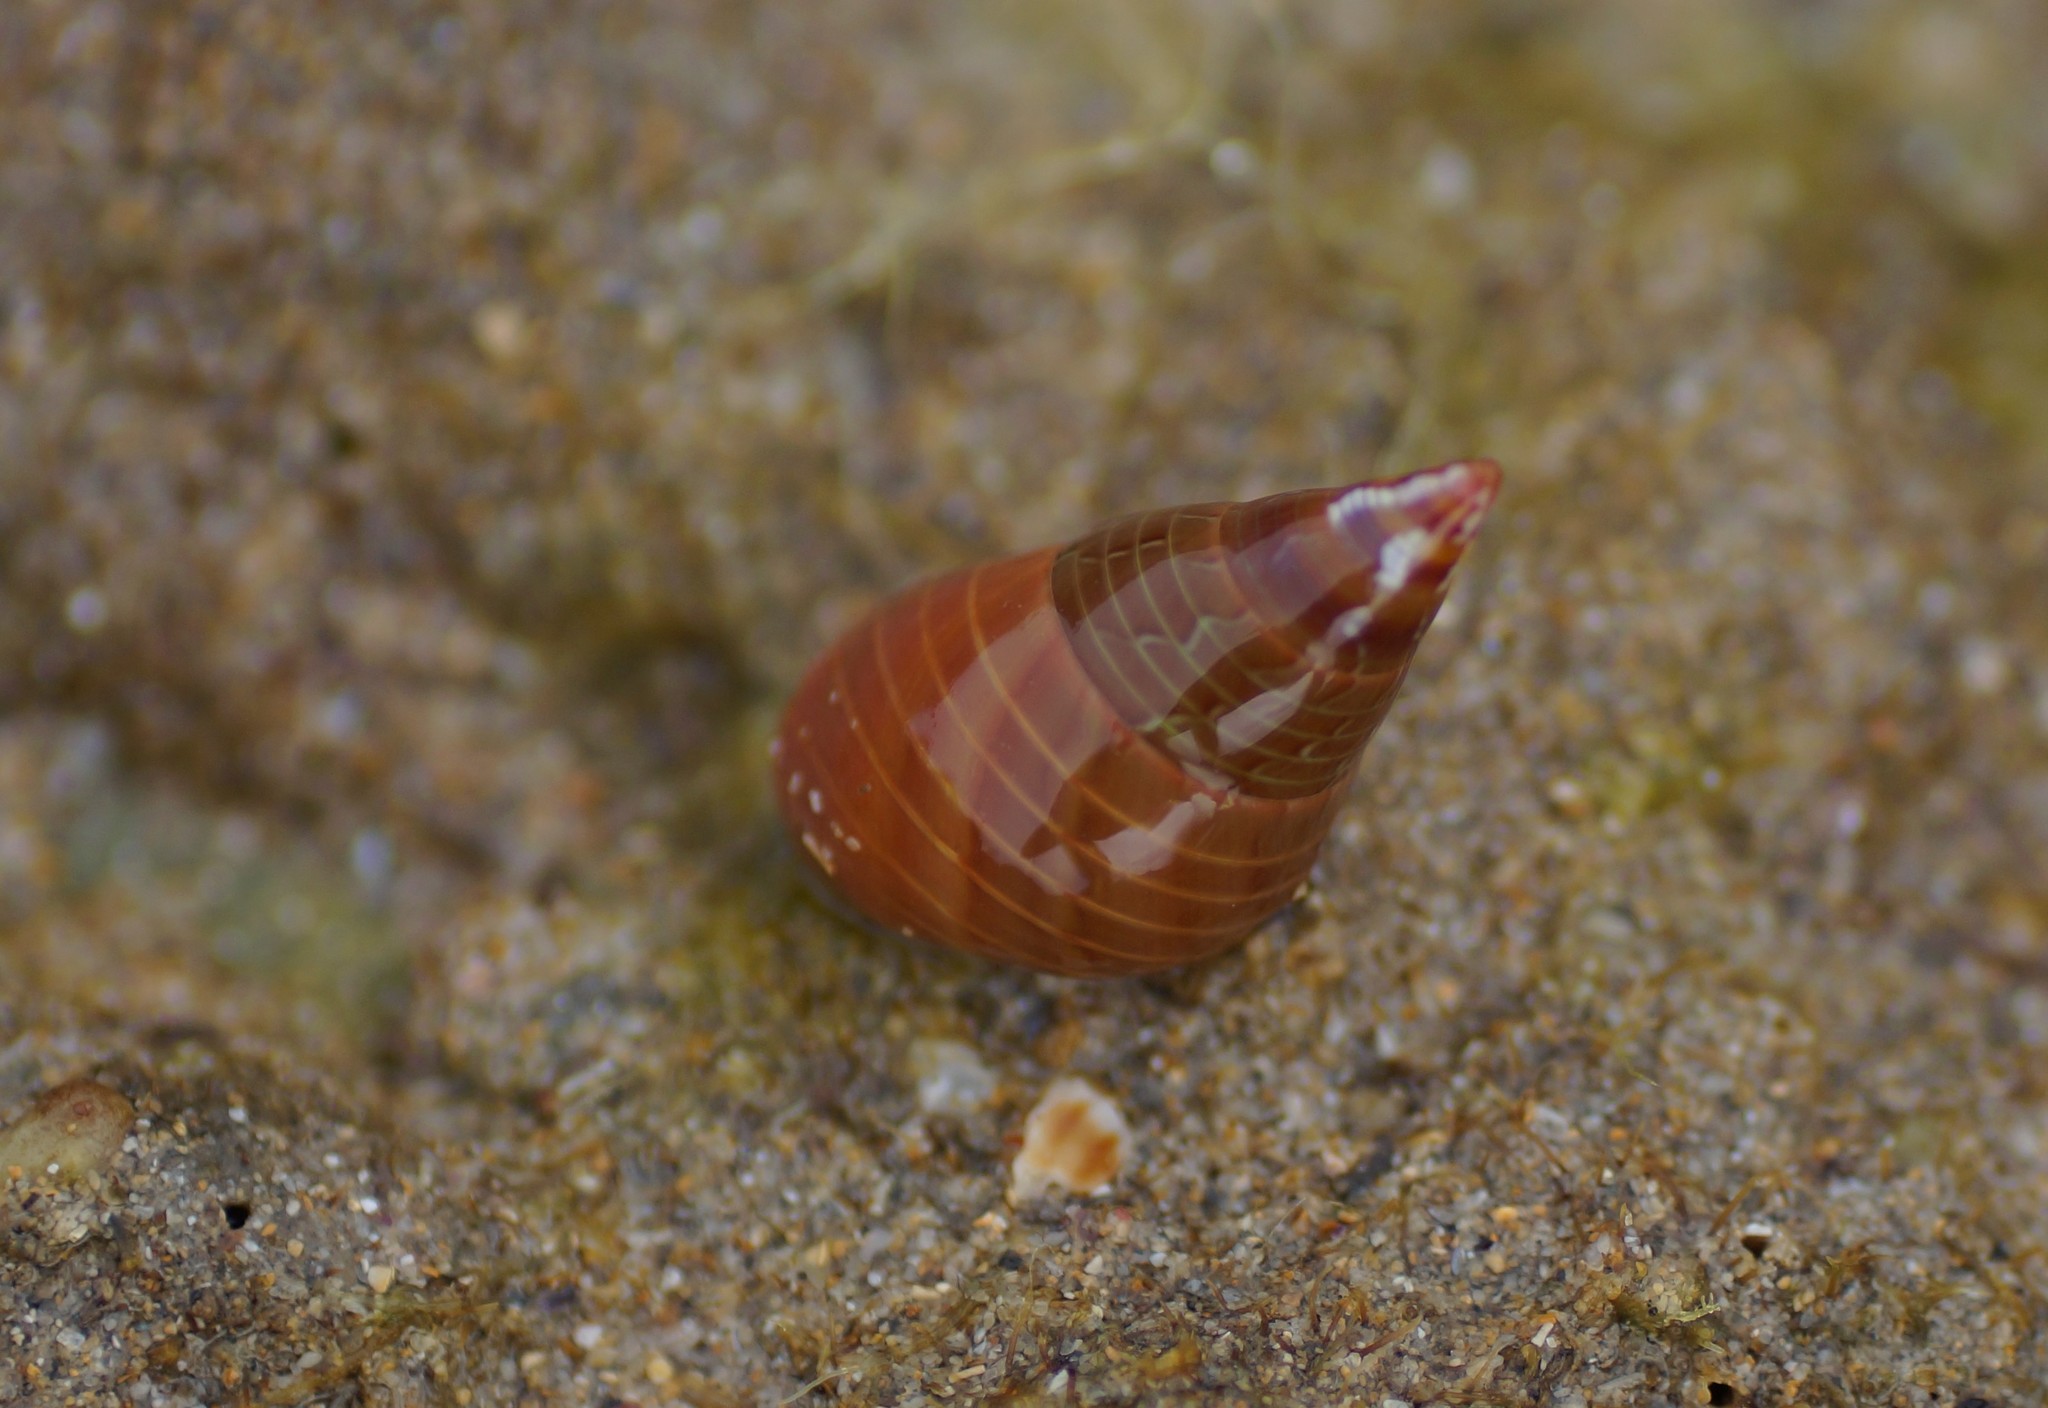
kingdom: Animalia
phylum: Mollusca
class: Gastropoda
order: Trochida
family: Trochidae
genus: Phasianotrochus
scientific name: Phasianotrochus eximius
